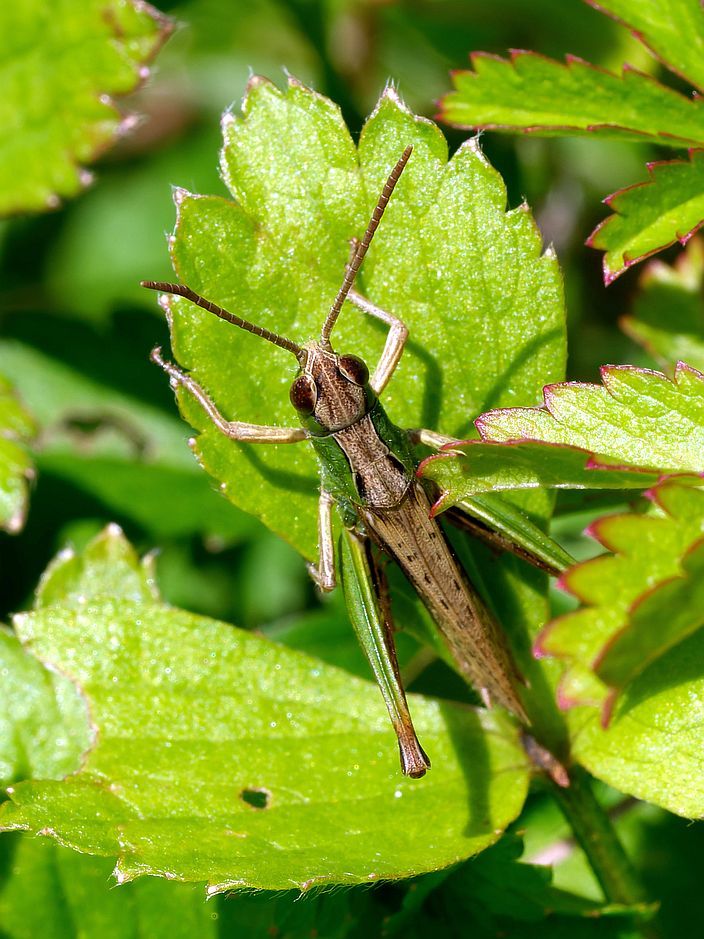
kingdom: Animalia
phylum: Arthropoda
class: Insecta
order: Orthoptera
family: Acrididae
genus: Pseudochorthippus
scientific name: Pseudochorthippus parallelus
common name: Meadow grasshopper
